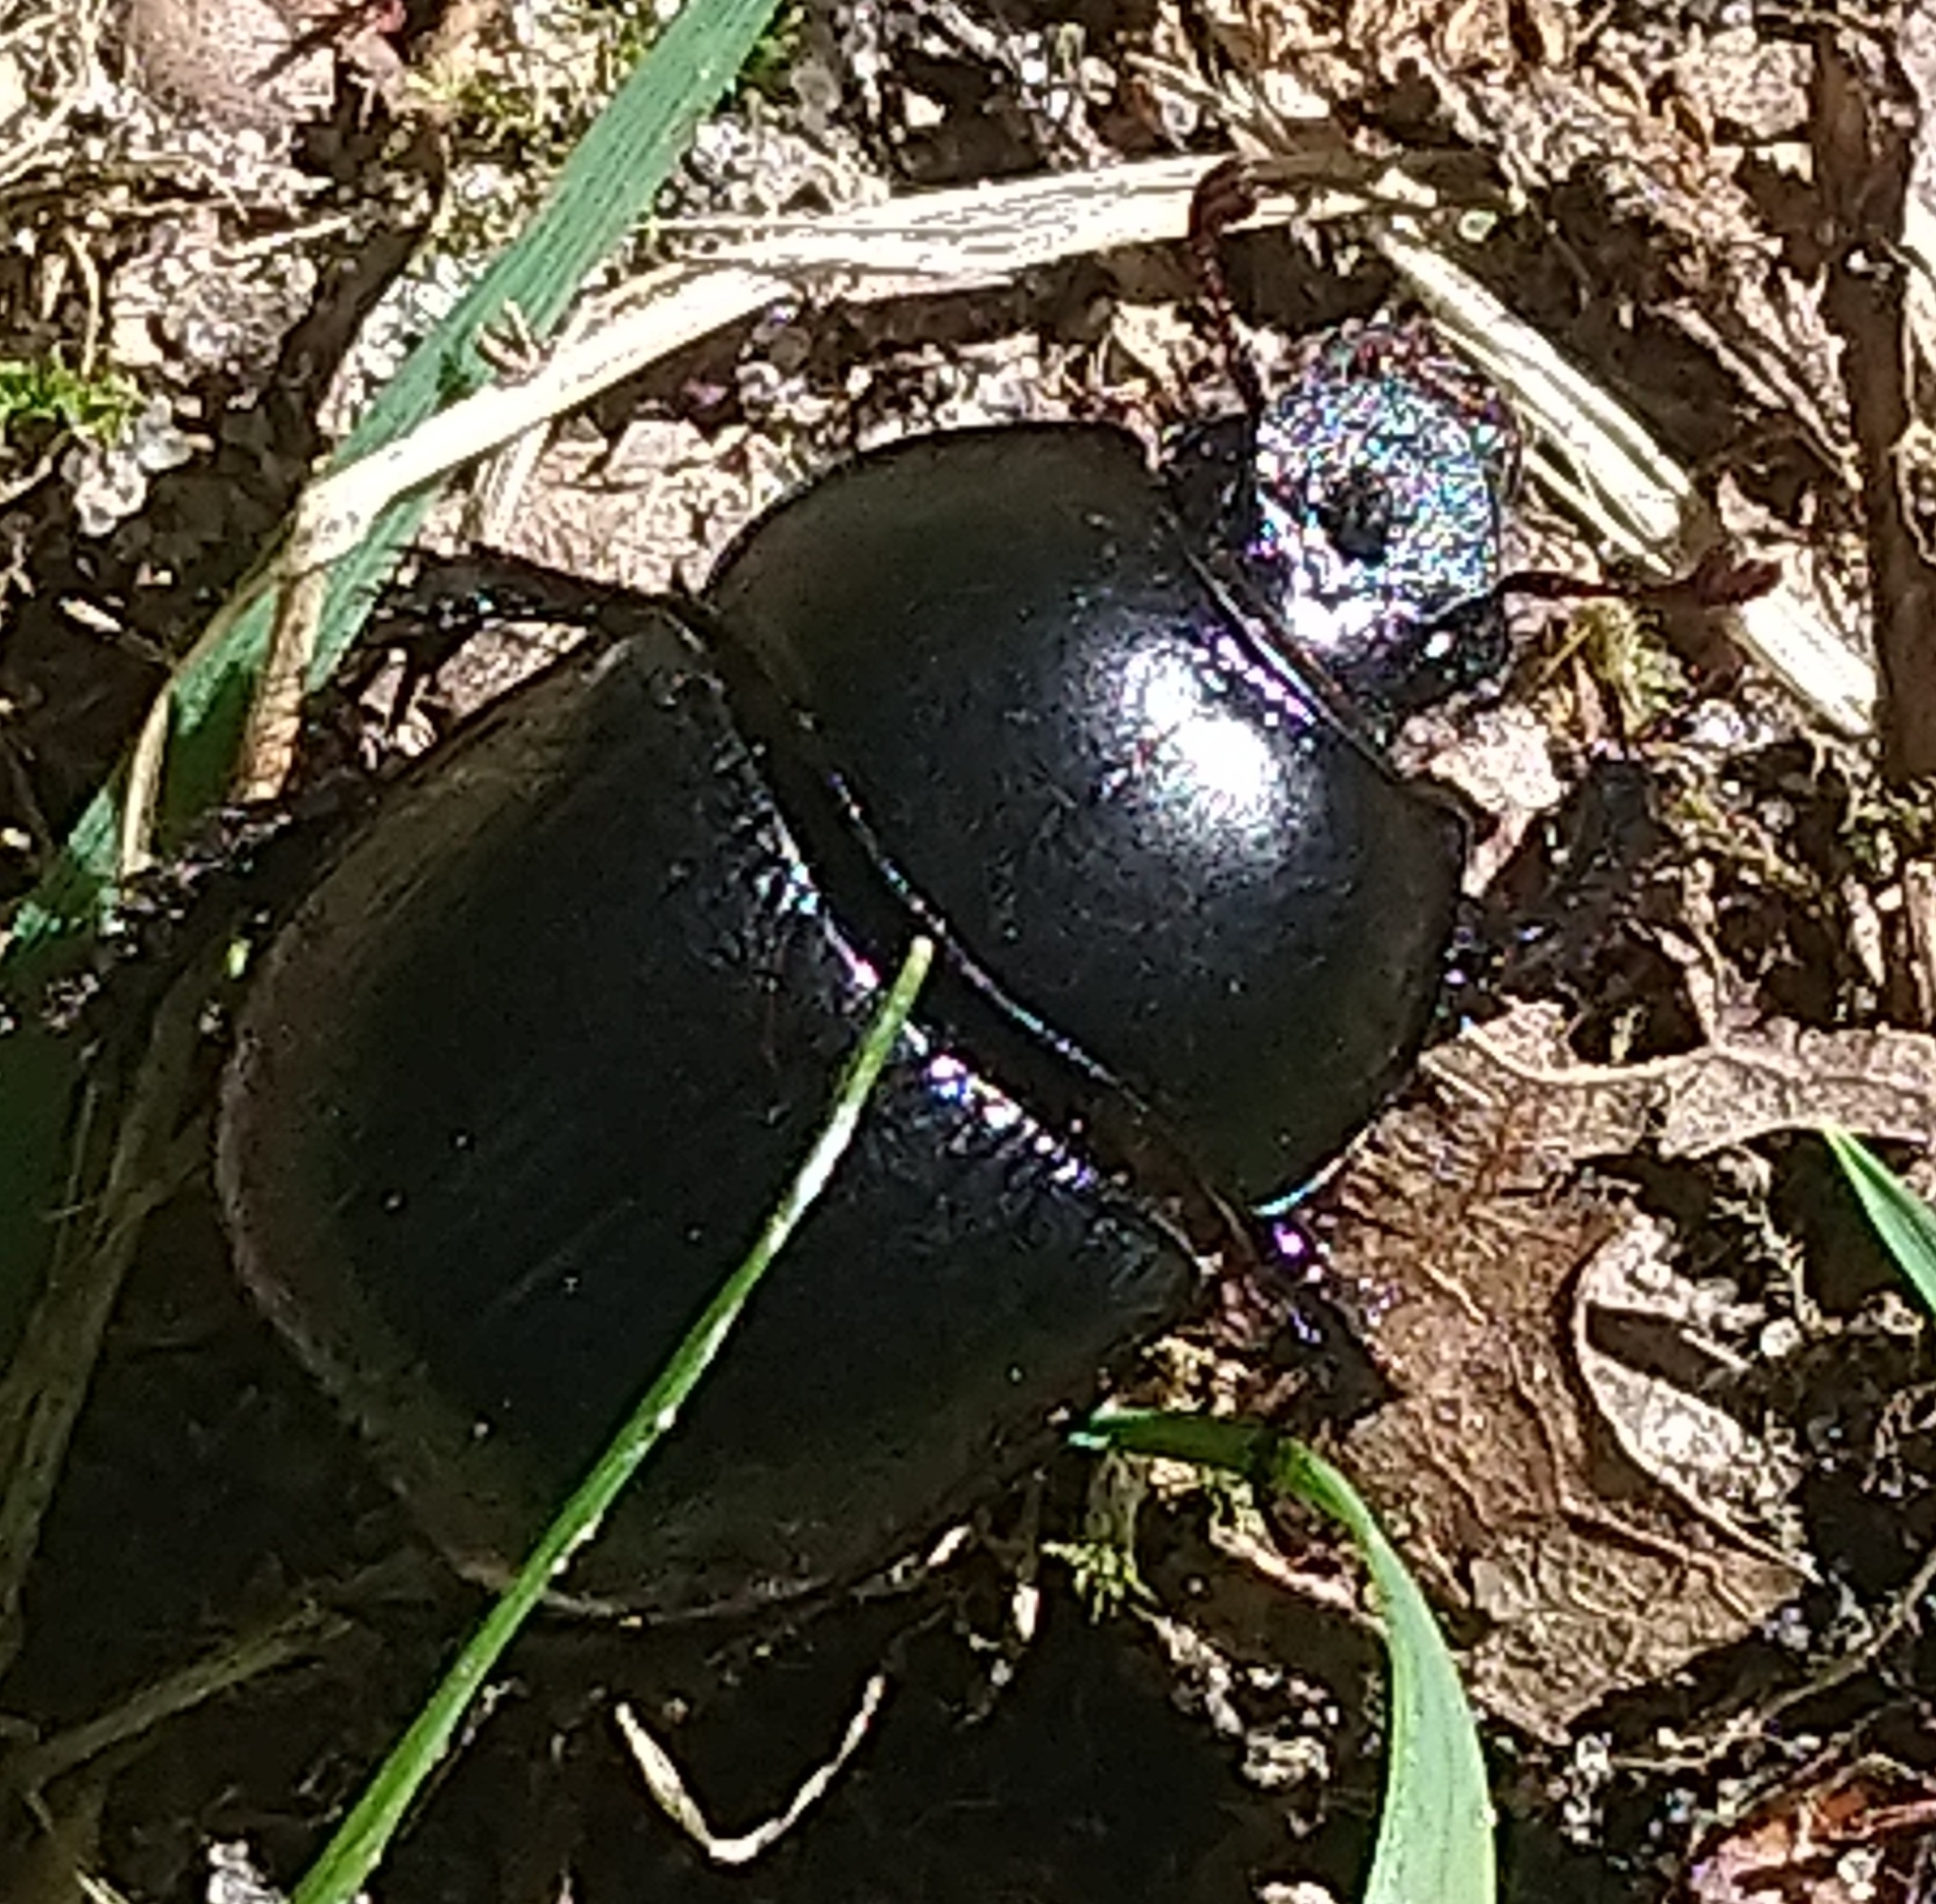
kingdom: Animalia
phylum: Arthropoda
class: Insecta
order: Coleoptera
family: Geotrupidae
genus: Anoplotrupes
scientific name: Anoplotrupes stercorosus
